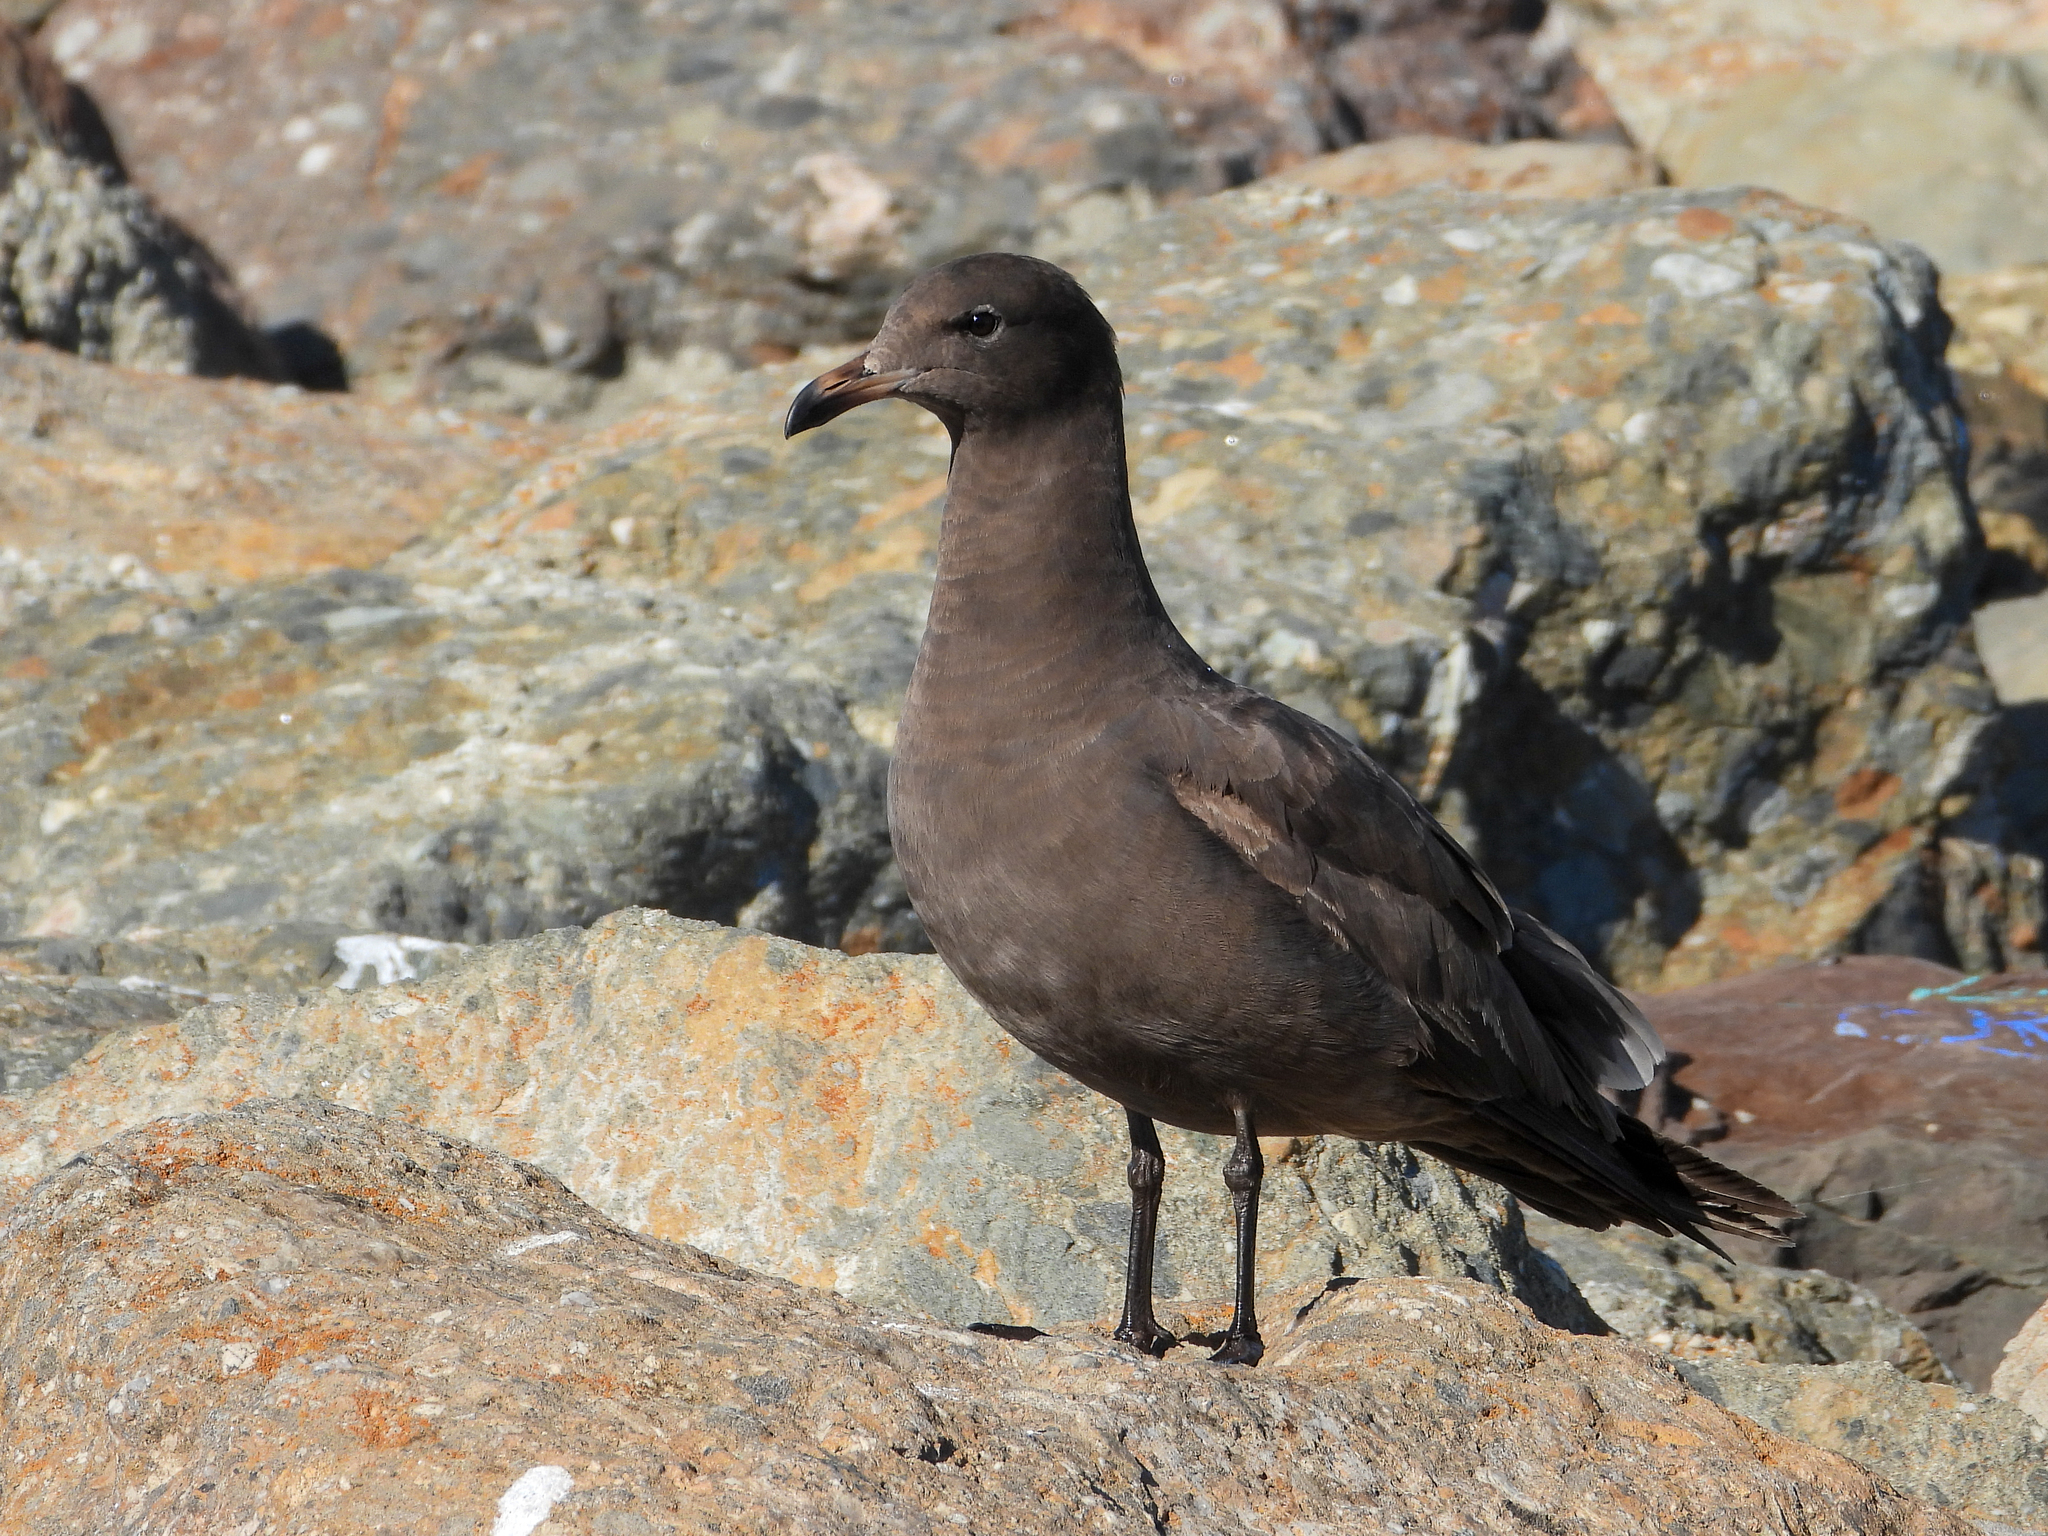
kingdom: Animalia
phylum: Chordata
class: Aves
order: Charadriiformes
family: Laridae
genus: Larus
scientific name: Larus heermanni
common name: Heermann's gull
